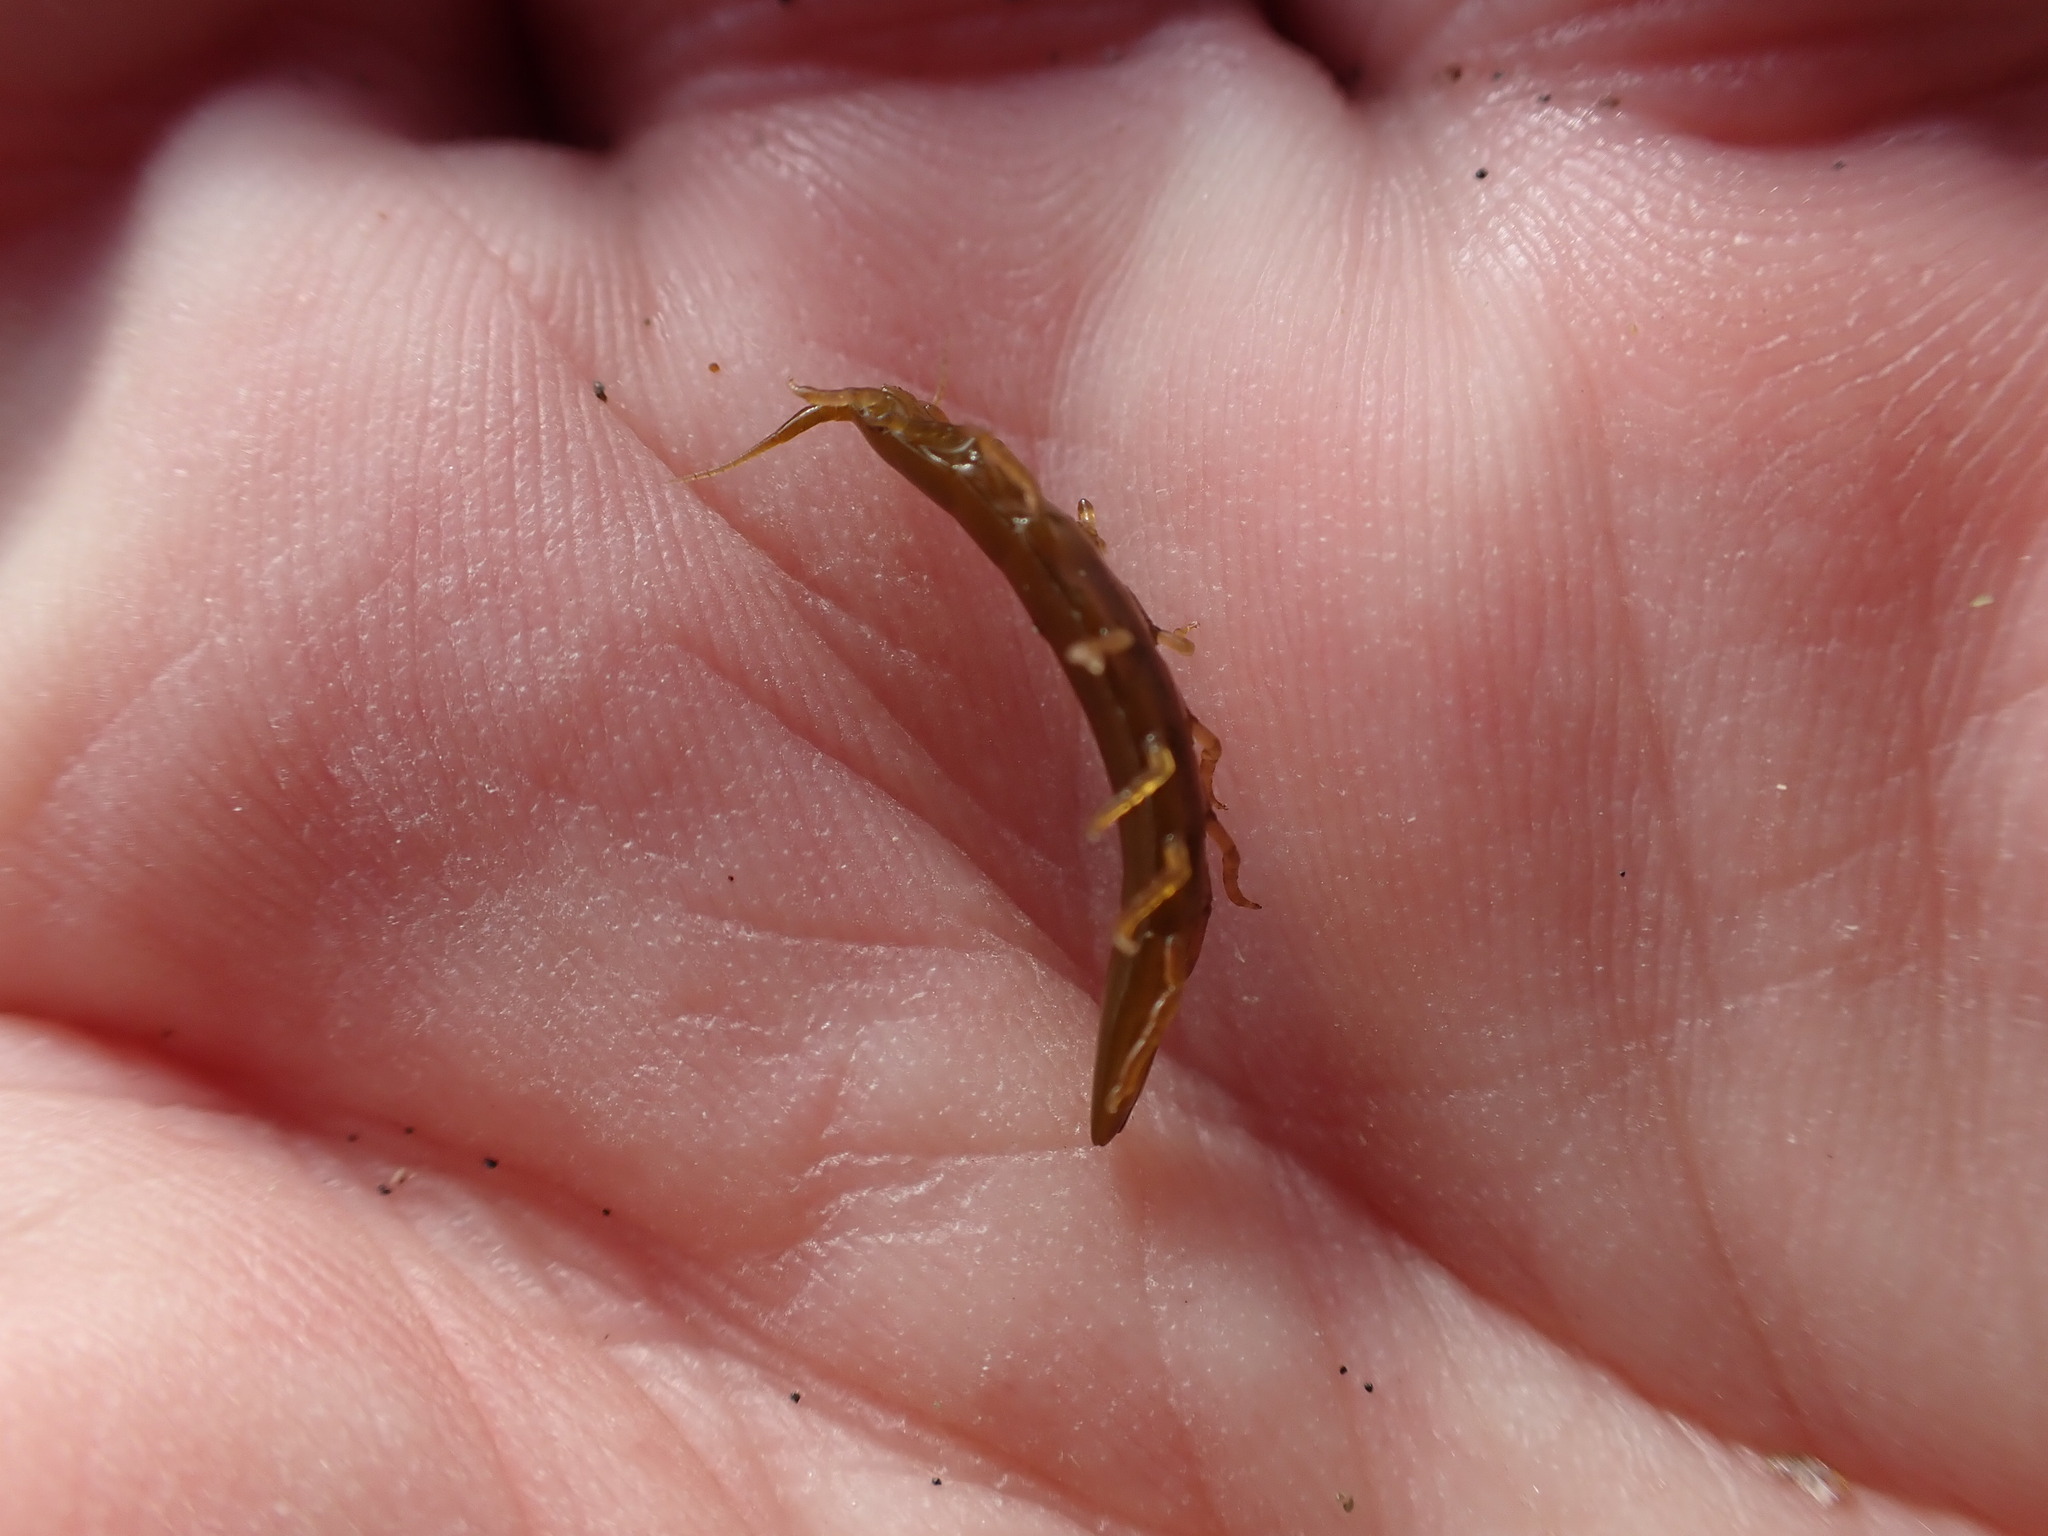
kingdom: Animalia
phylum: Arthropoda
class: Malacostraca
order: Isopoda
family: Idoteidae
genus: Batedotea
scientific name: Batedotea elongata
